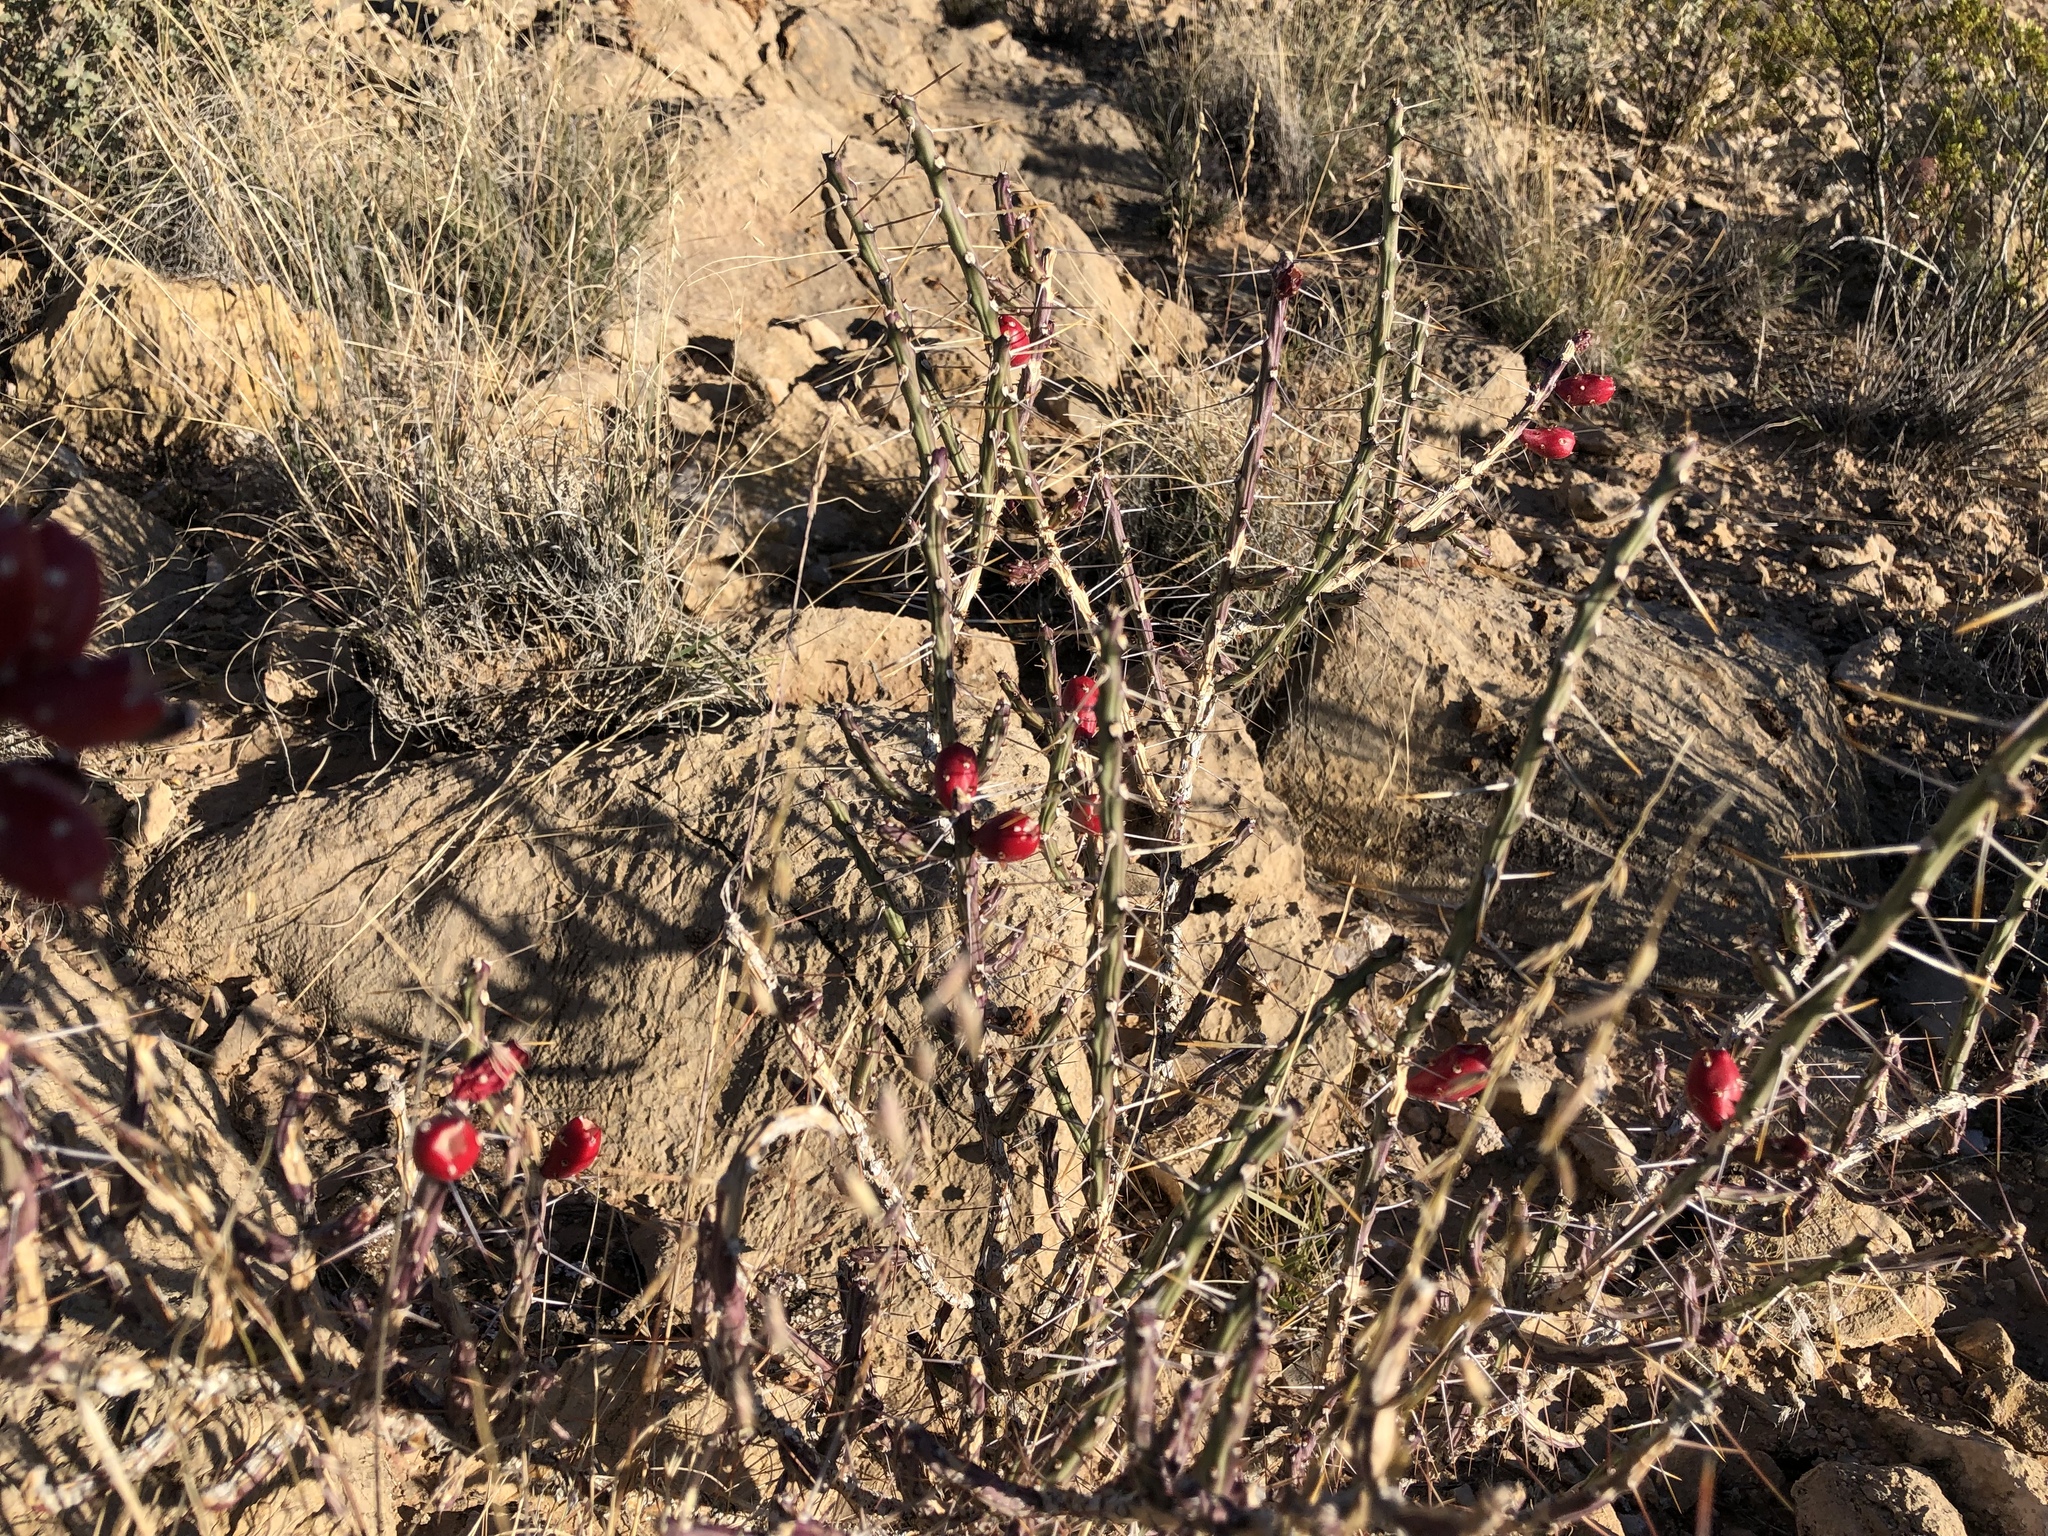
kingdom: Plantae
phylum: Tracheophyta
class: Magnoliopsida
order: Caryophyllales
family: Cactaceae
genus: Cylindropuntia
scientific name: Cylindropuntia leptocaulis
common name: Christmas cactus
